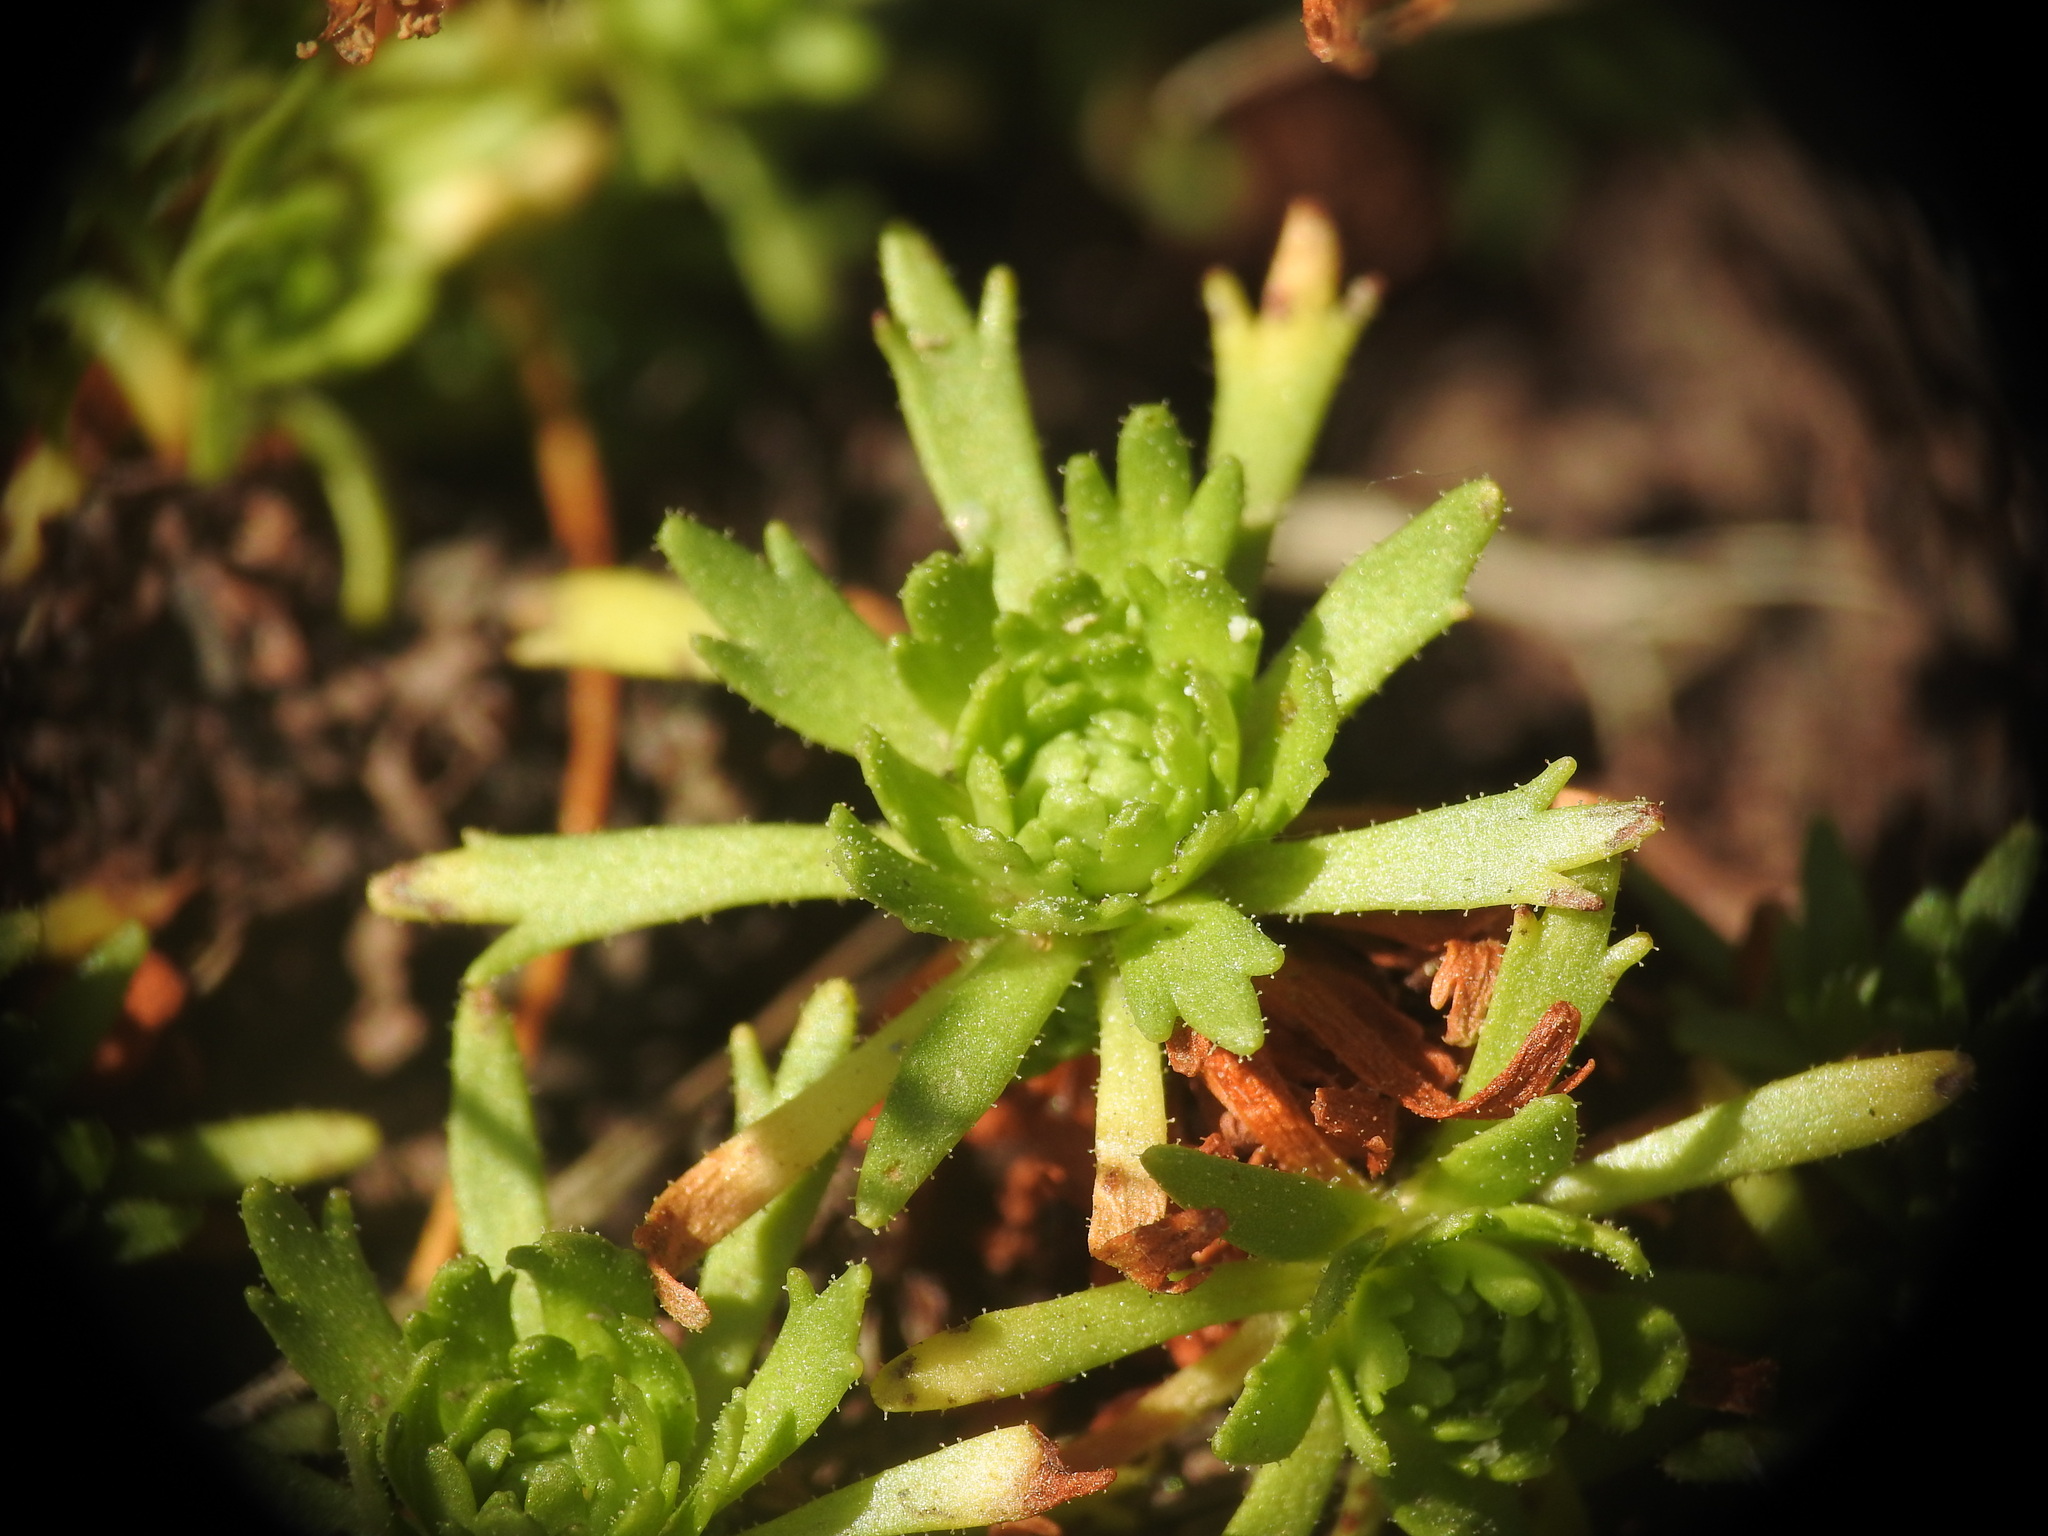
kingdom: Plantae
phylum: Tracheophyta
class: Magnoliopsida
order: Saxifragales
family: Saxifragaceae
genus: Saxifraga
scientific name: Saxifraga moschata
